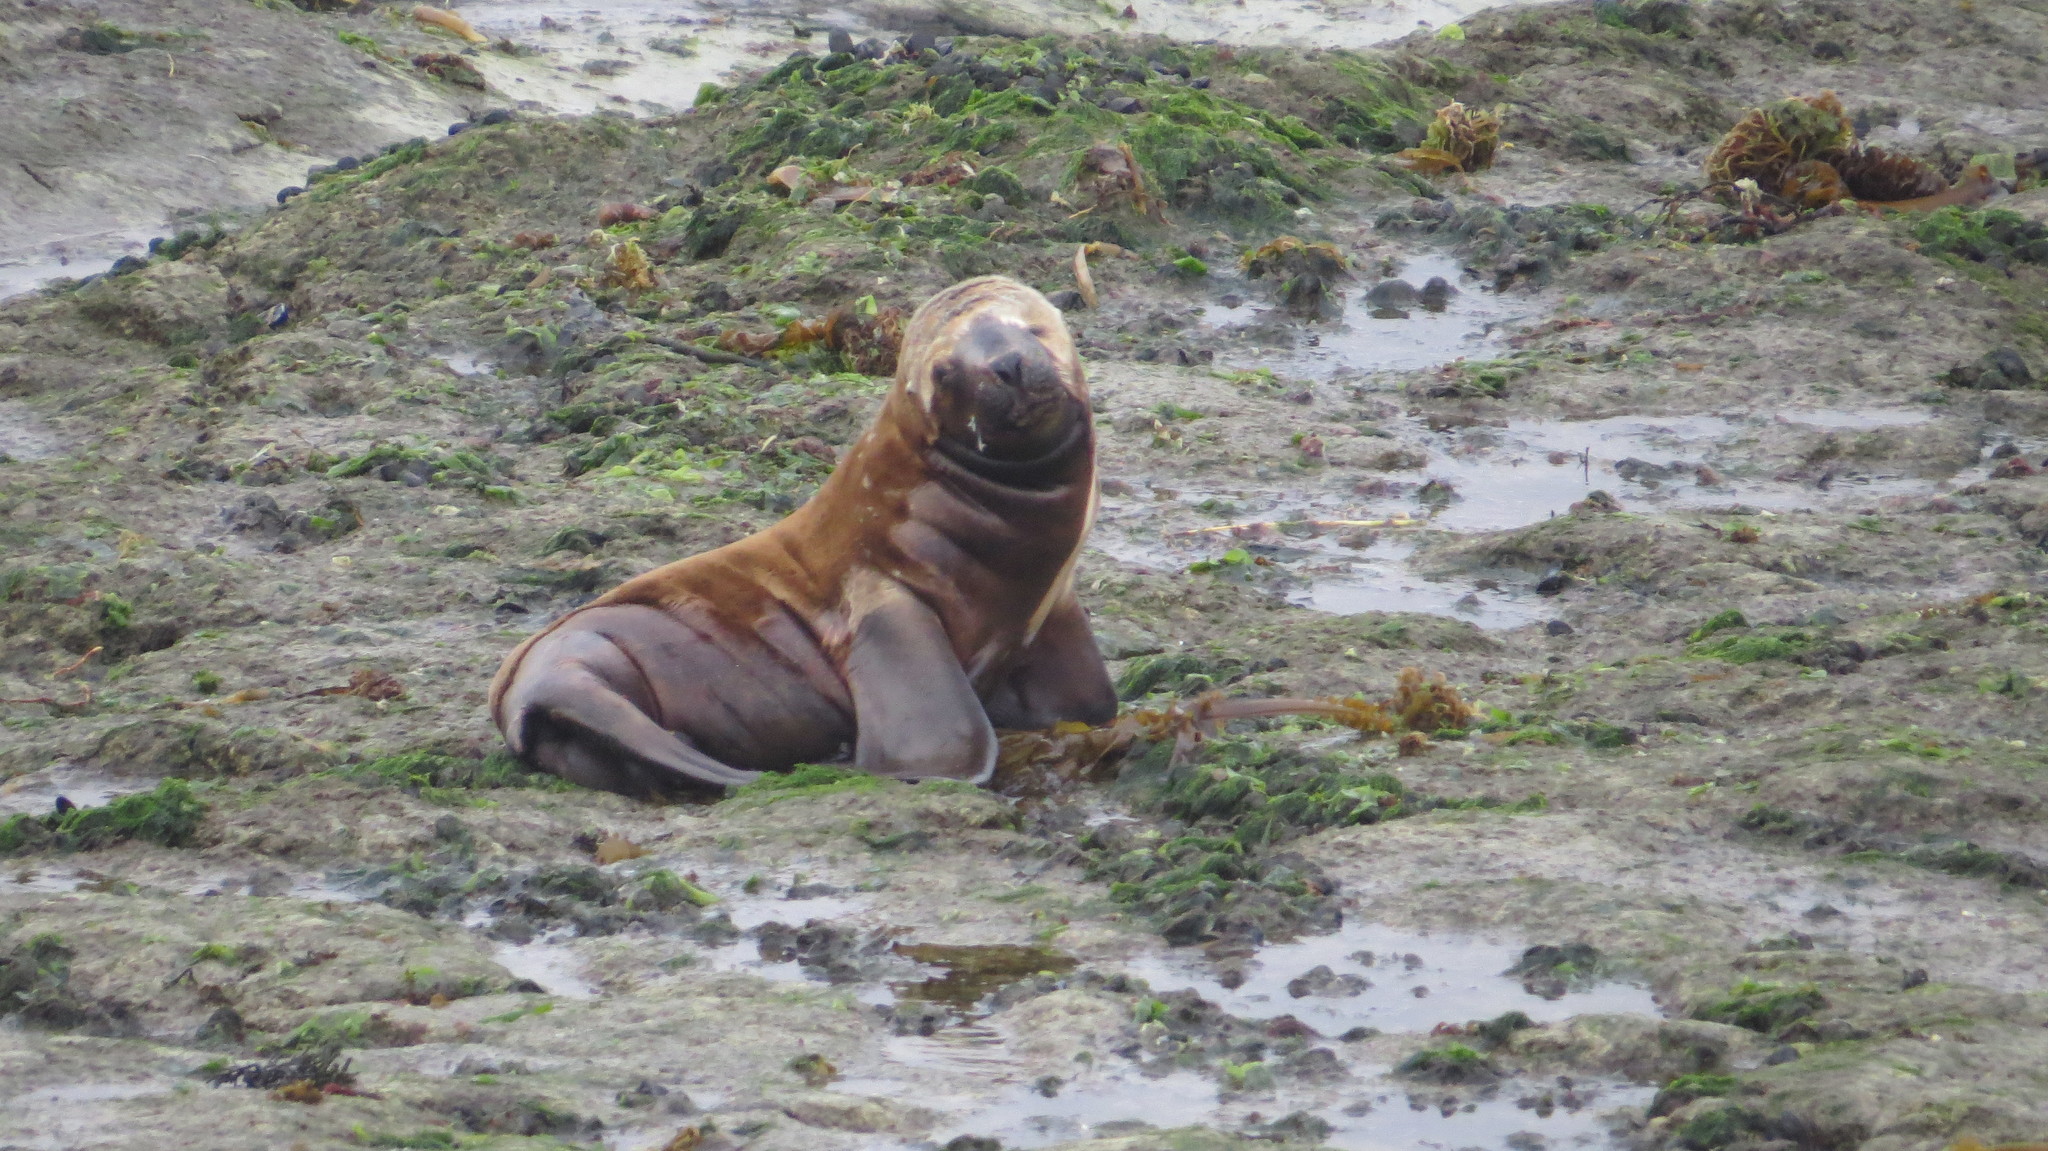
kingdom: Animalia
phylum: Chordata
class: Mammalia
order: Carnivora
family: Otariidae
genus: Otaria
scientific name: Otaria byronia
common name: South american sea lion
